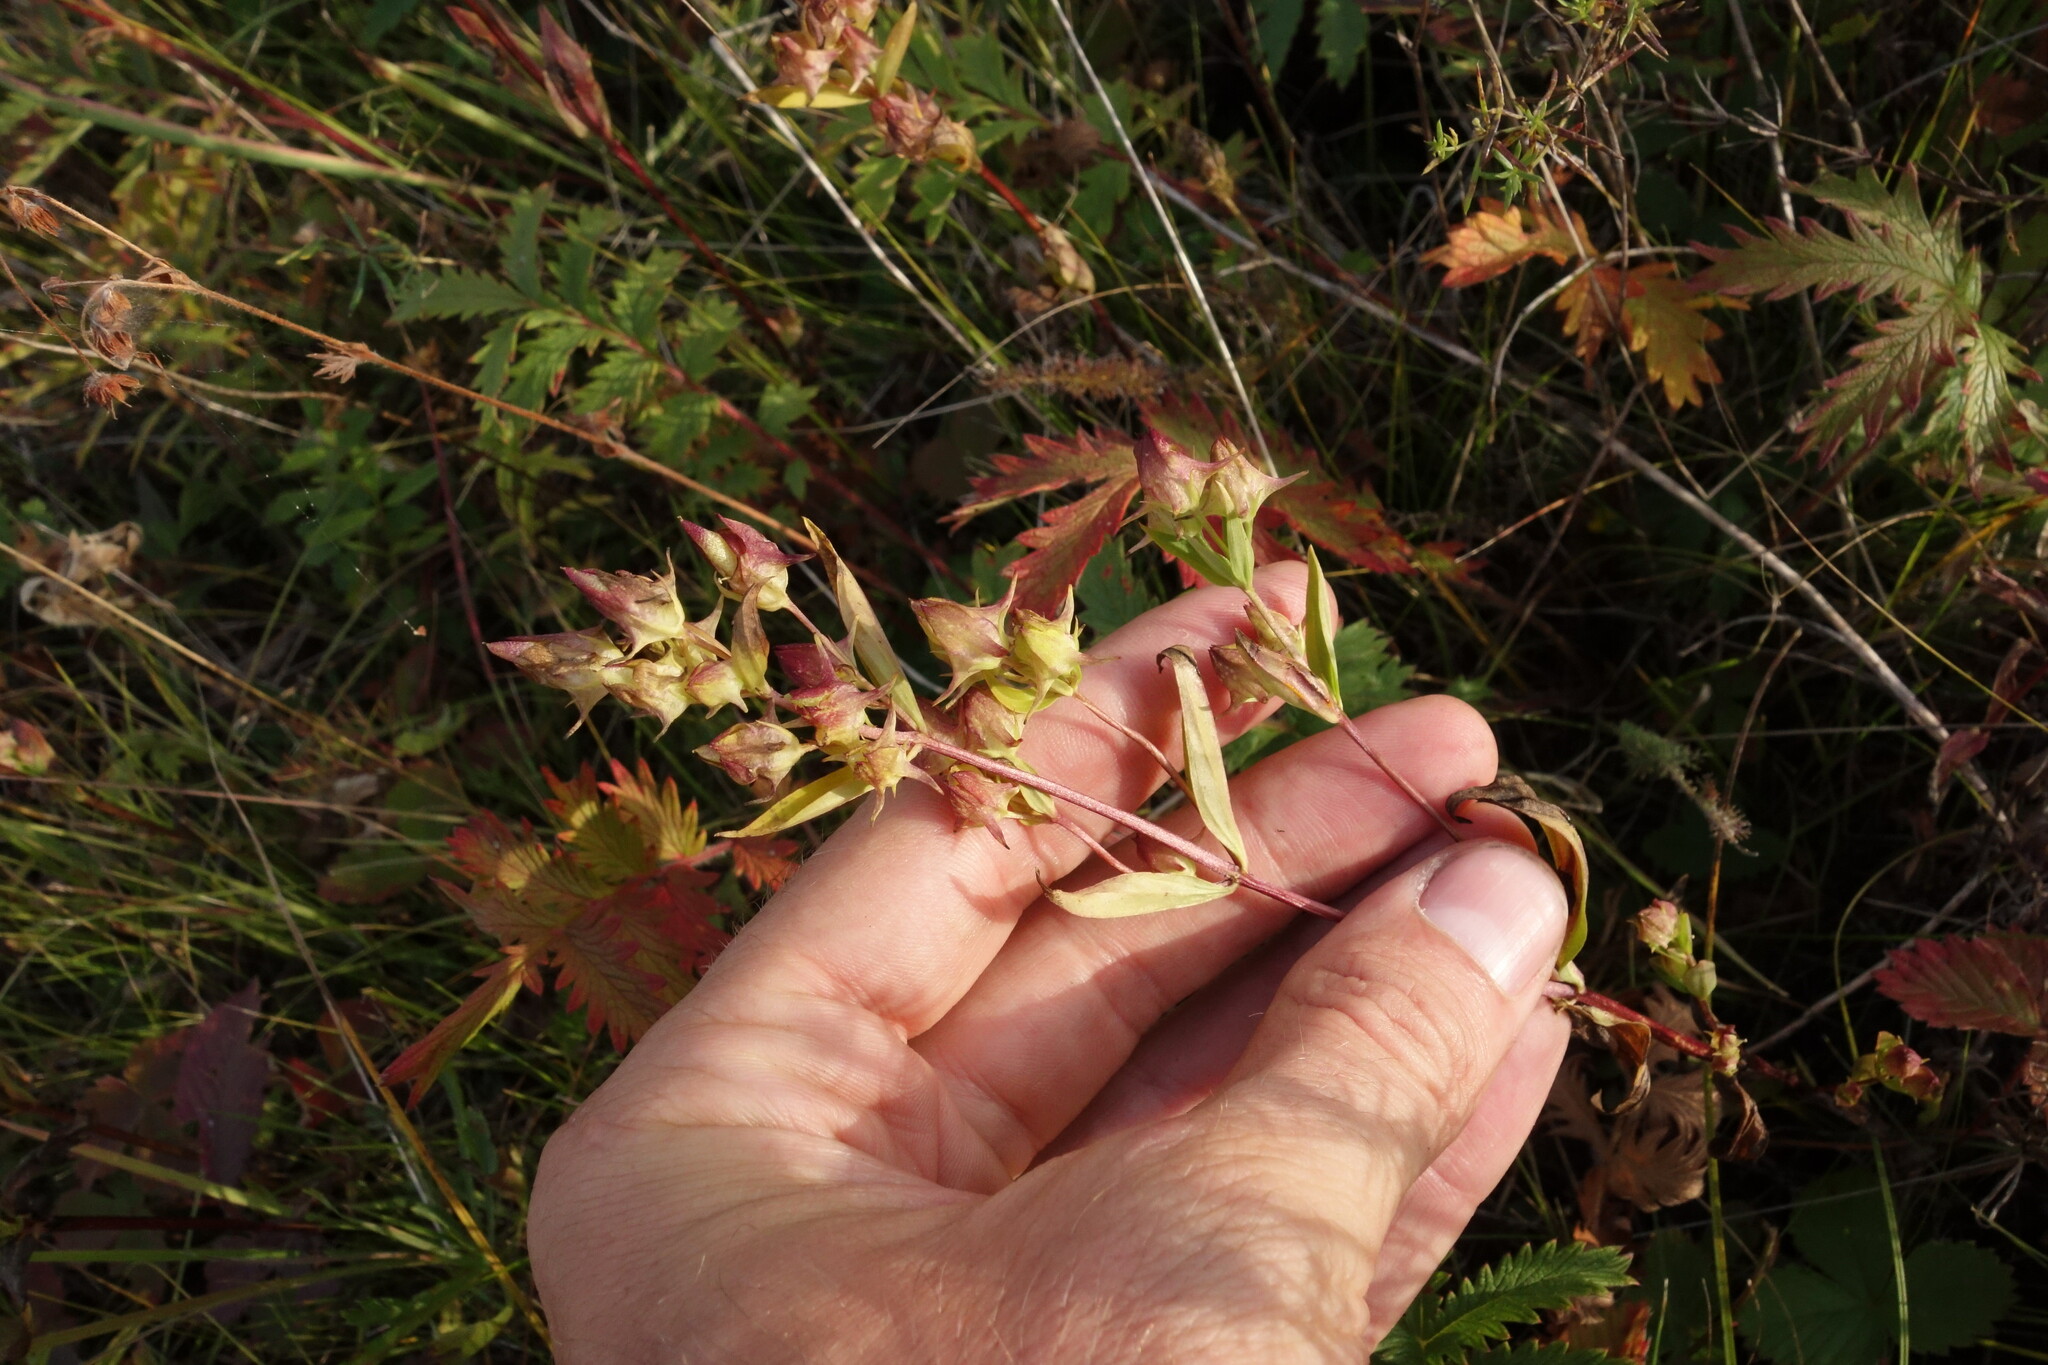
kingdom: Plantae
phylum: Tracheophyta
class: Magnoliopsida
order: Gentianales
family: Gentianaceae
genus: Halenia
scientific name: Halenia corniculata
